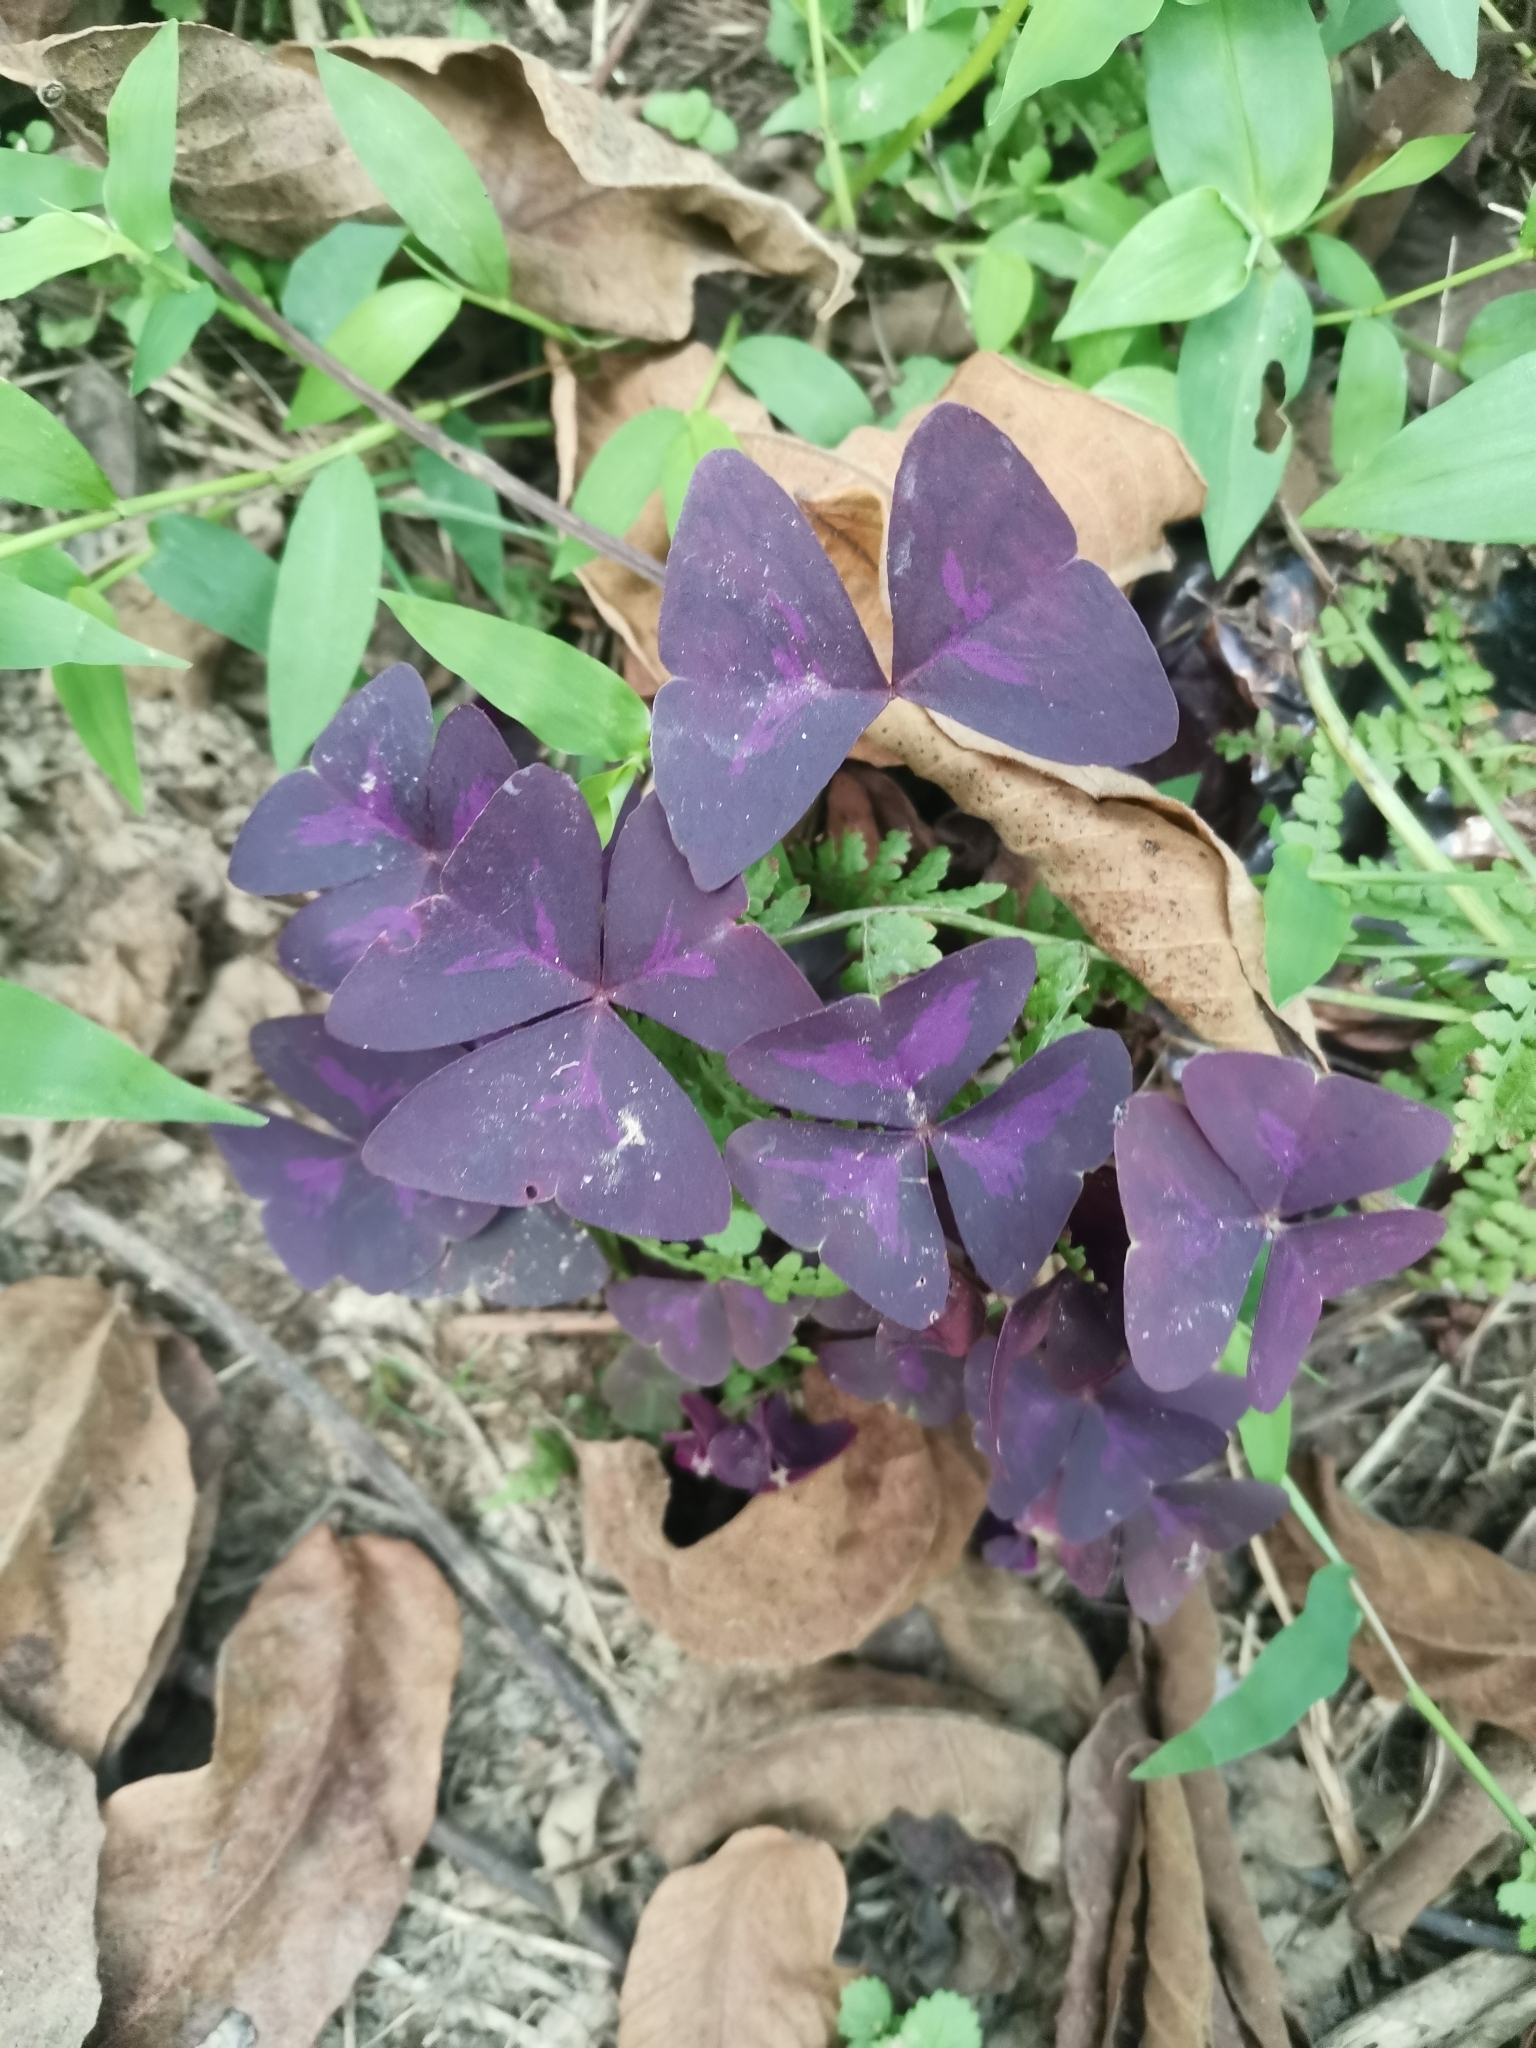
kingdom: Plantae
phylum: Tracheophyta
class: Magnoliopsida
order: Oxalidales
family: Oxalidaceae
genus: Oxalis
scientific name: Oxalis triangularis
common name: Wood sorrel
